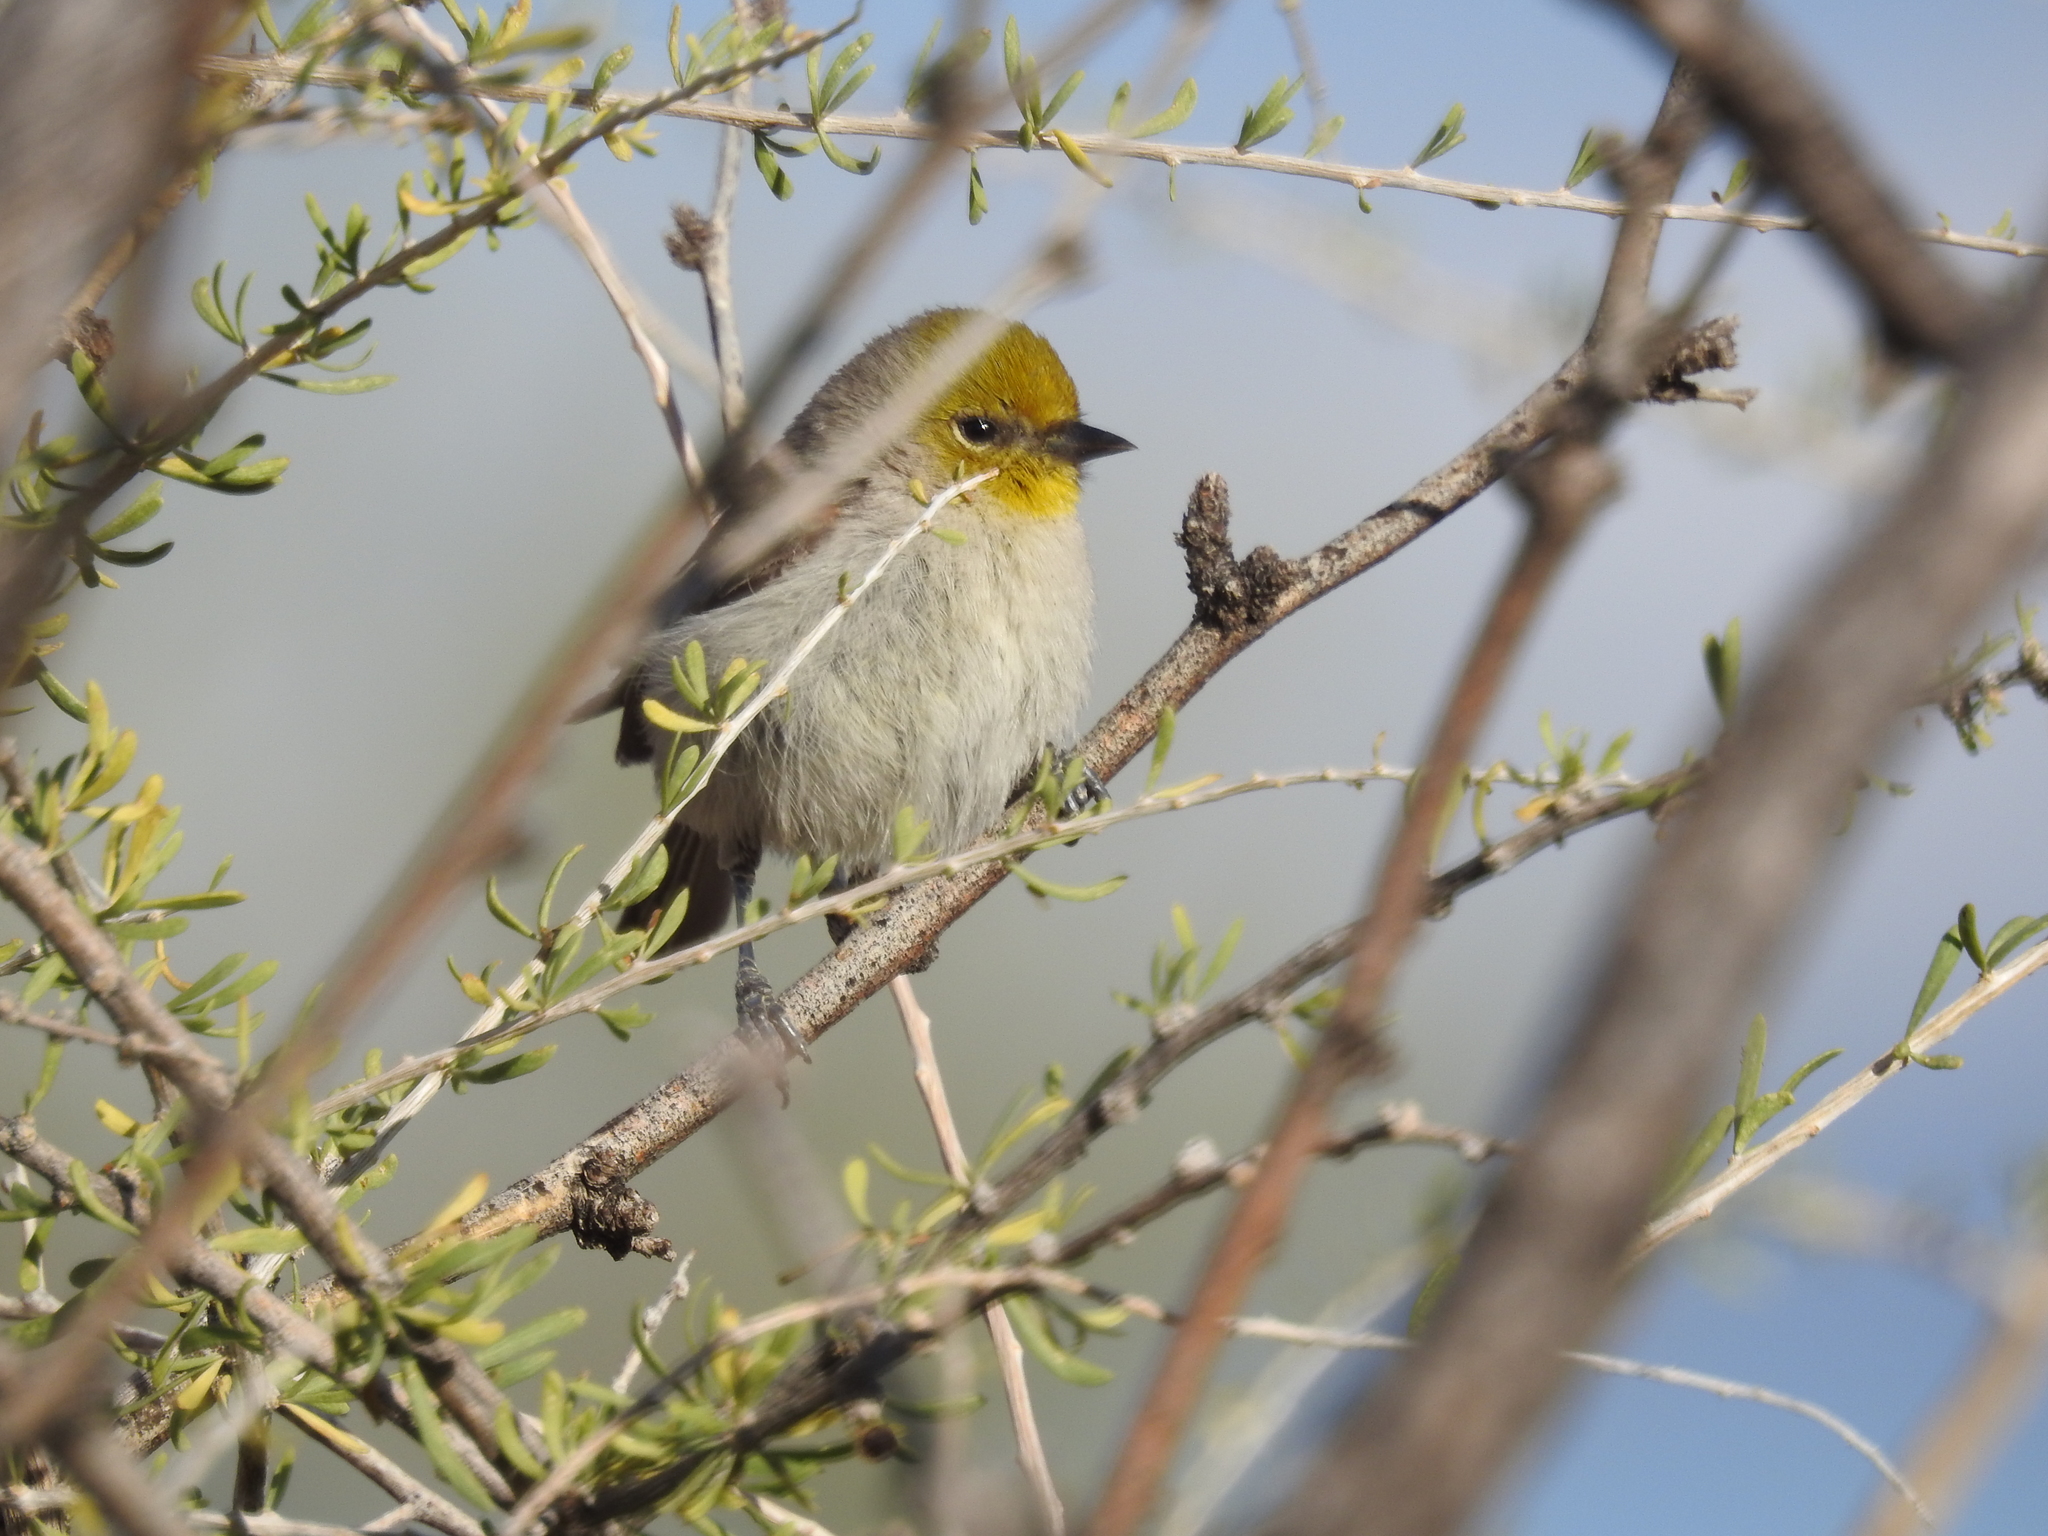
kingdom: Animalia
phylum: Chordata
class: Aves
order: Passeriformes
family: Remizidae
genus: Auriparus
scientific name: Auriparus flaviceps
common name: Verdin
